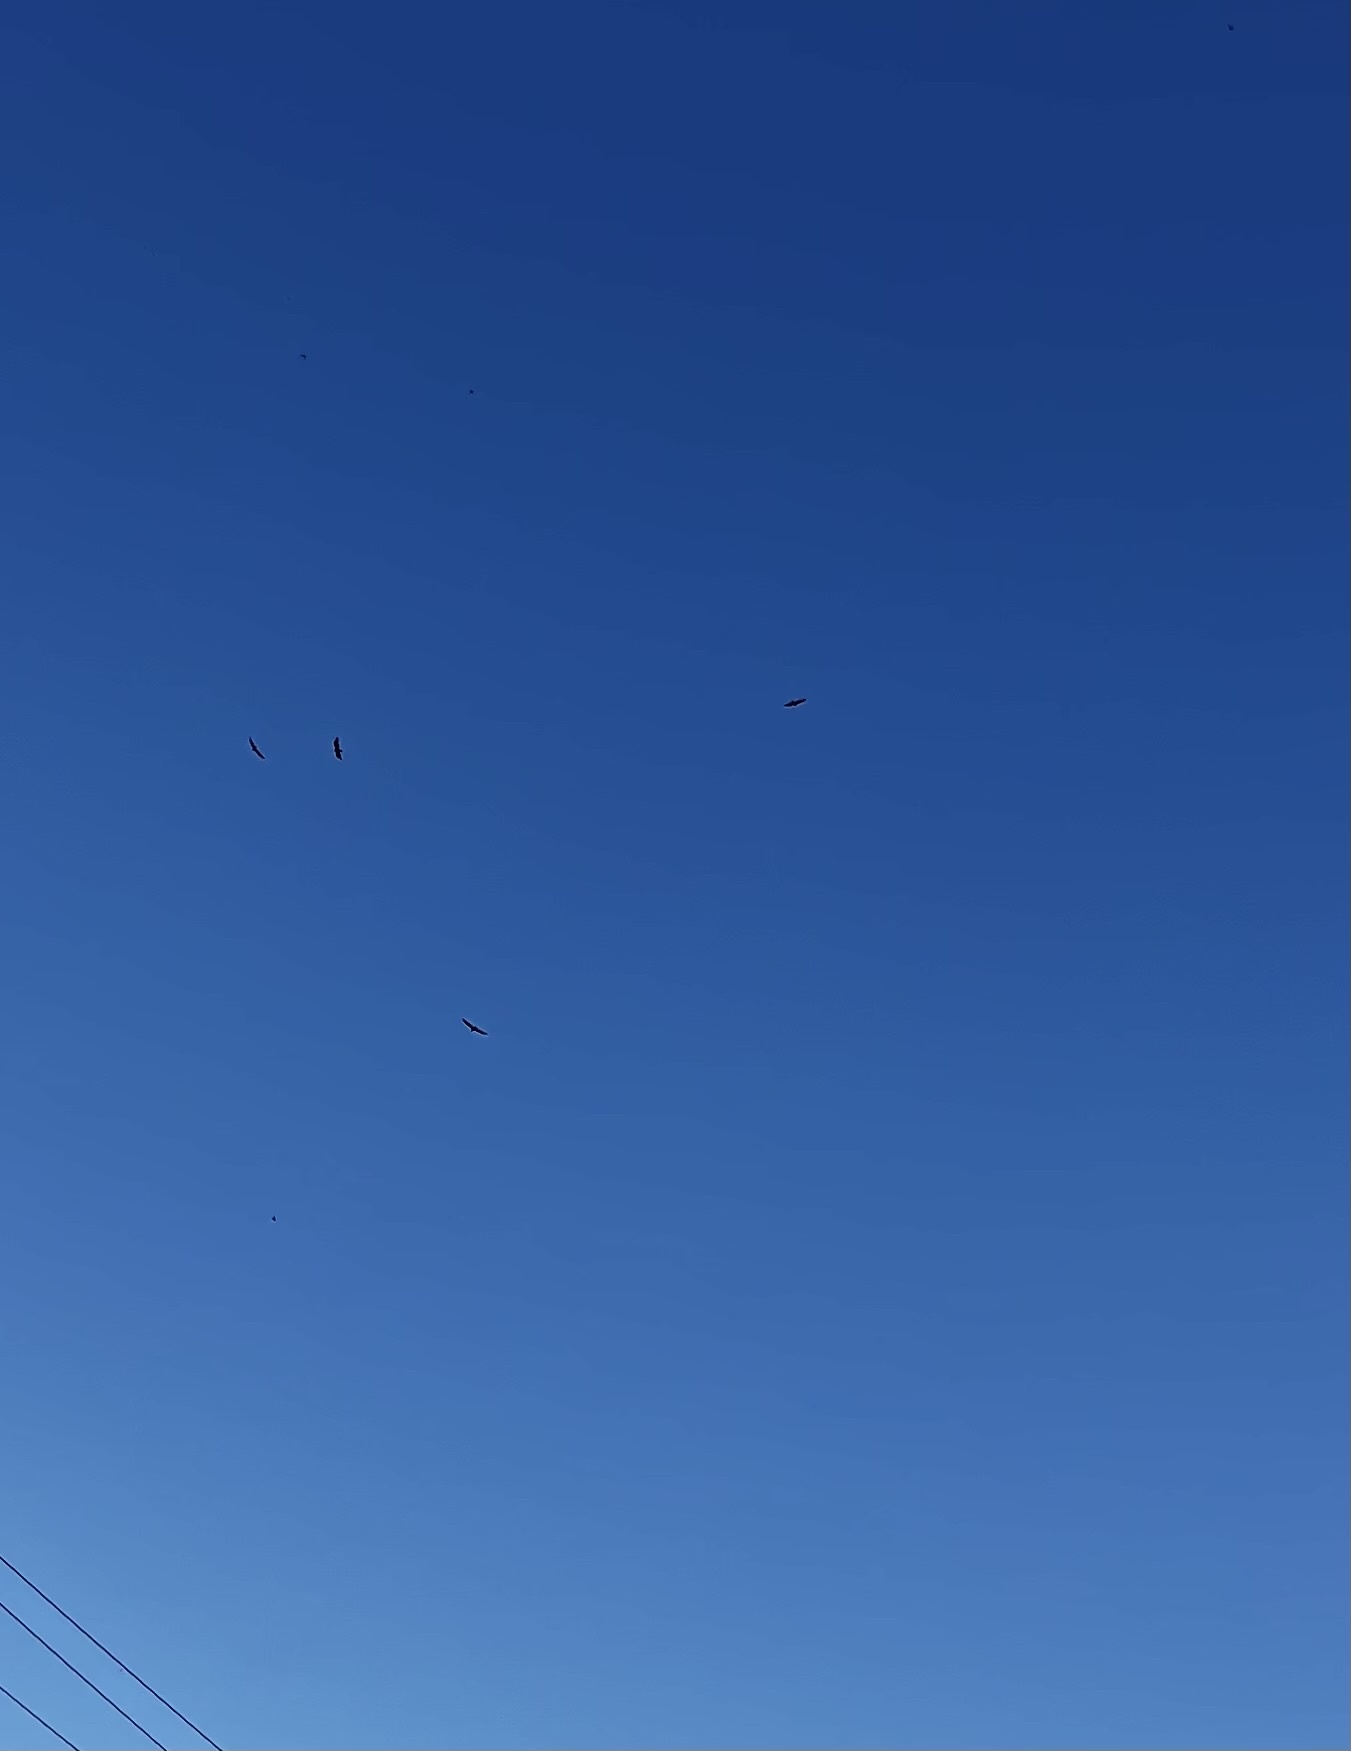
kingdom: Animalia
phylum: Chordata
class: Aves
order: Accipitriformes
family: Cathartidae
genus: Cathartes
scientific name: Cathartes aura
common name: Turkey vulture
